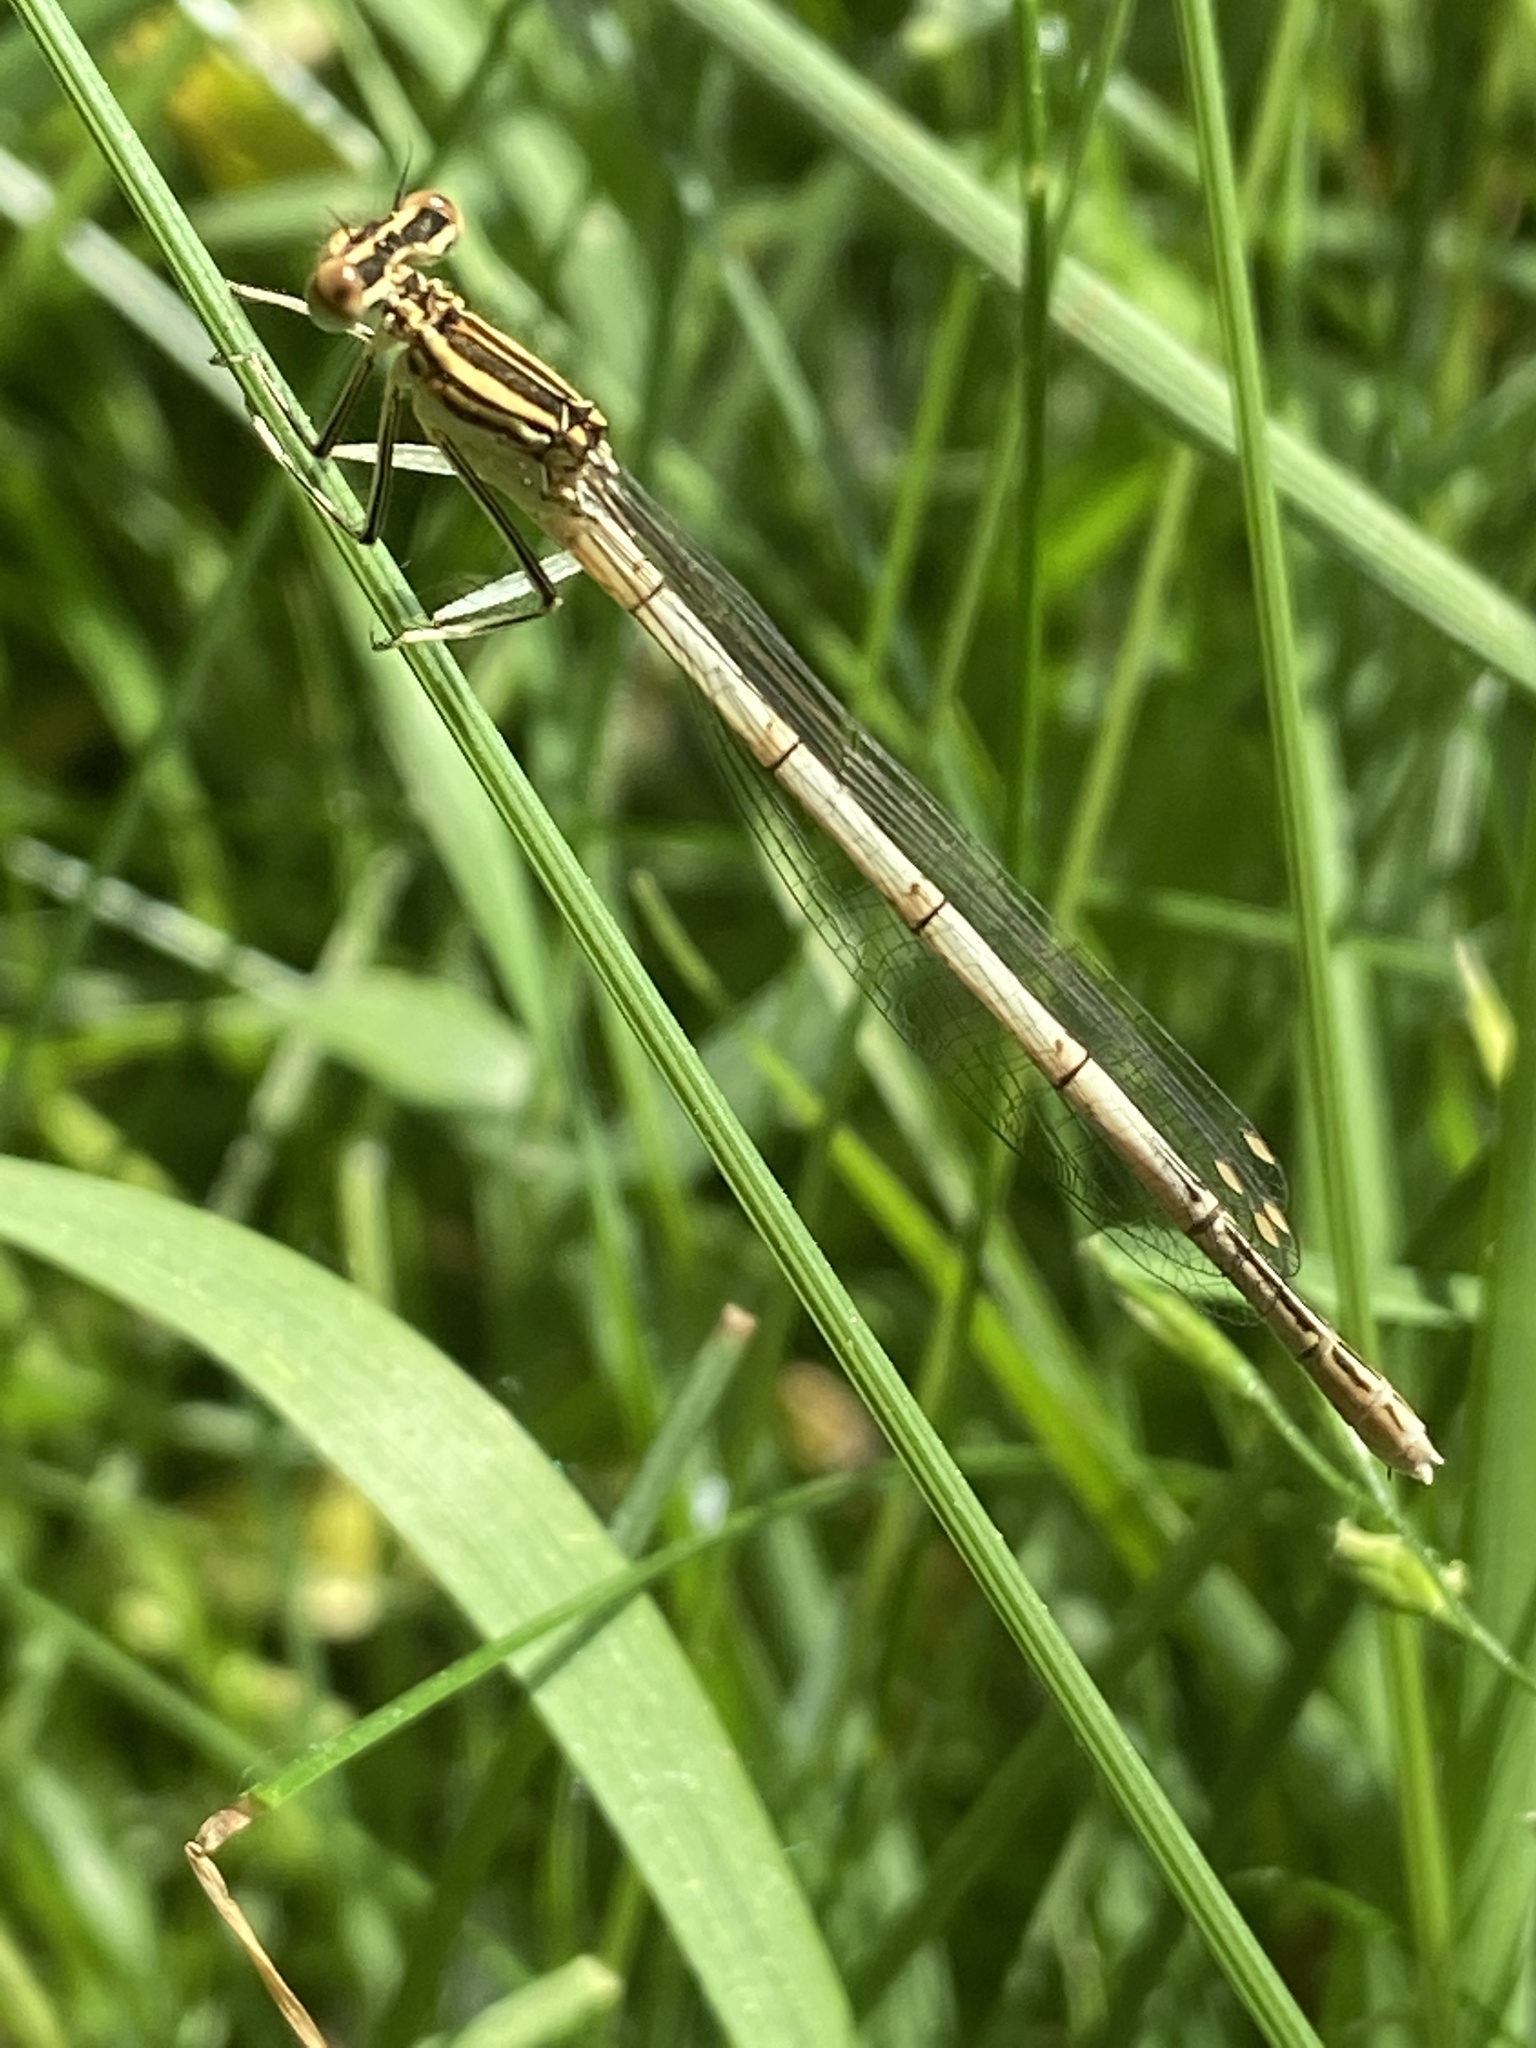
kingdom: Animalia
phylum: Arthropoda
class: Insecta
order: Odonata
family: Platycnemididae
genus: Platycnemis
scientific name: Platycnemis pennipes
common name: White-legged damselfly
